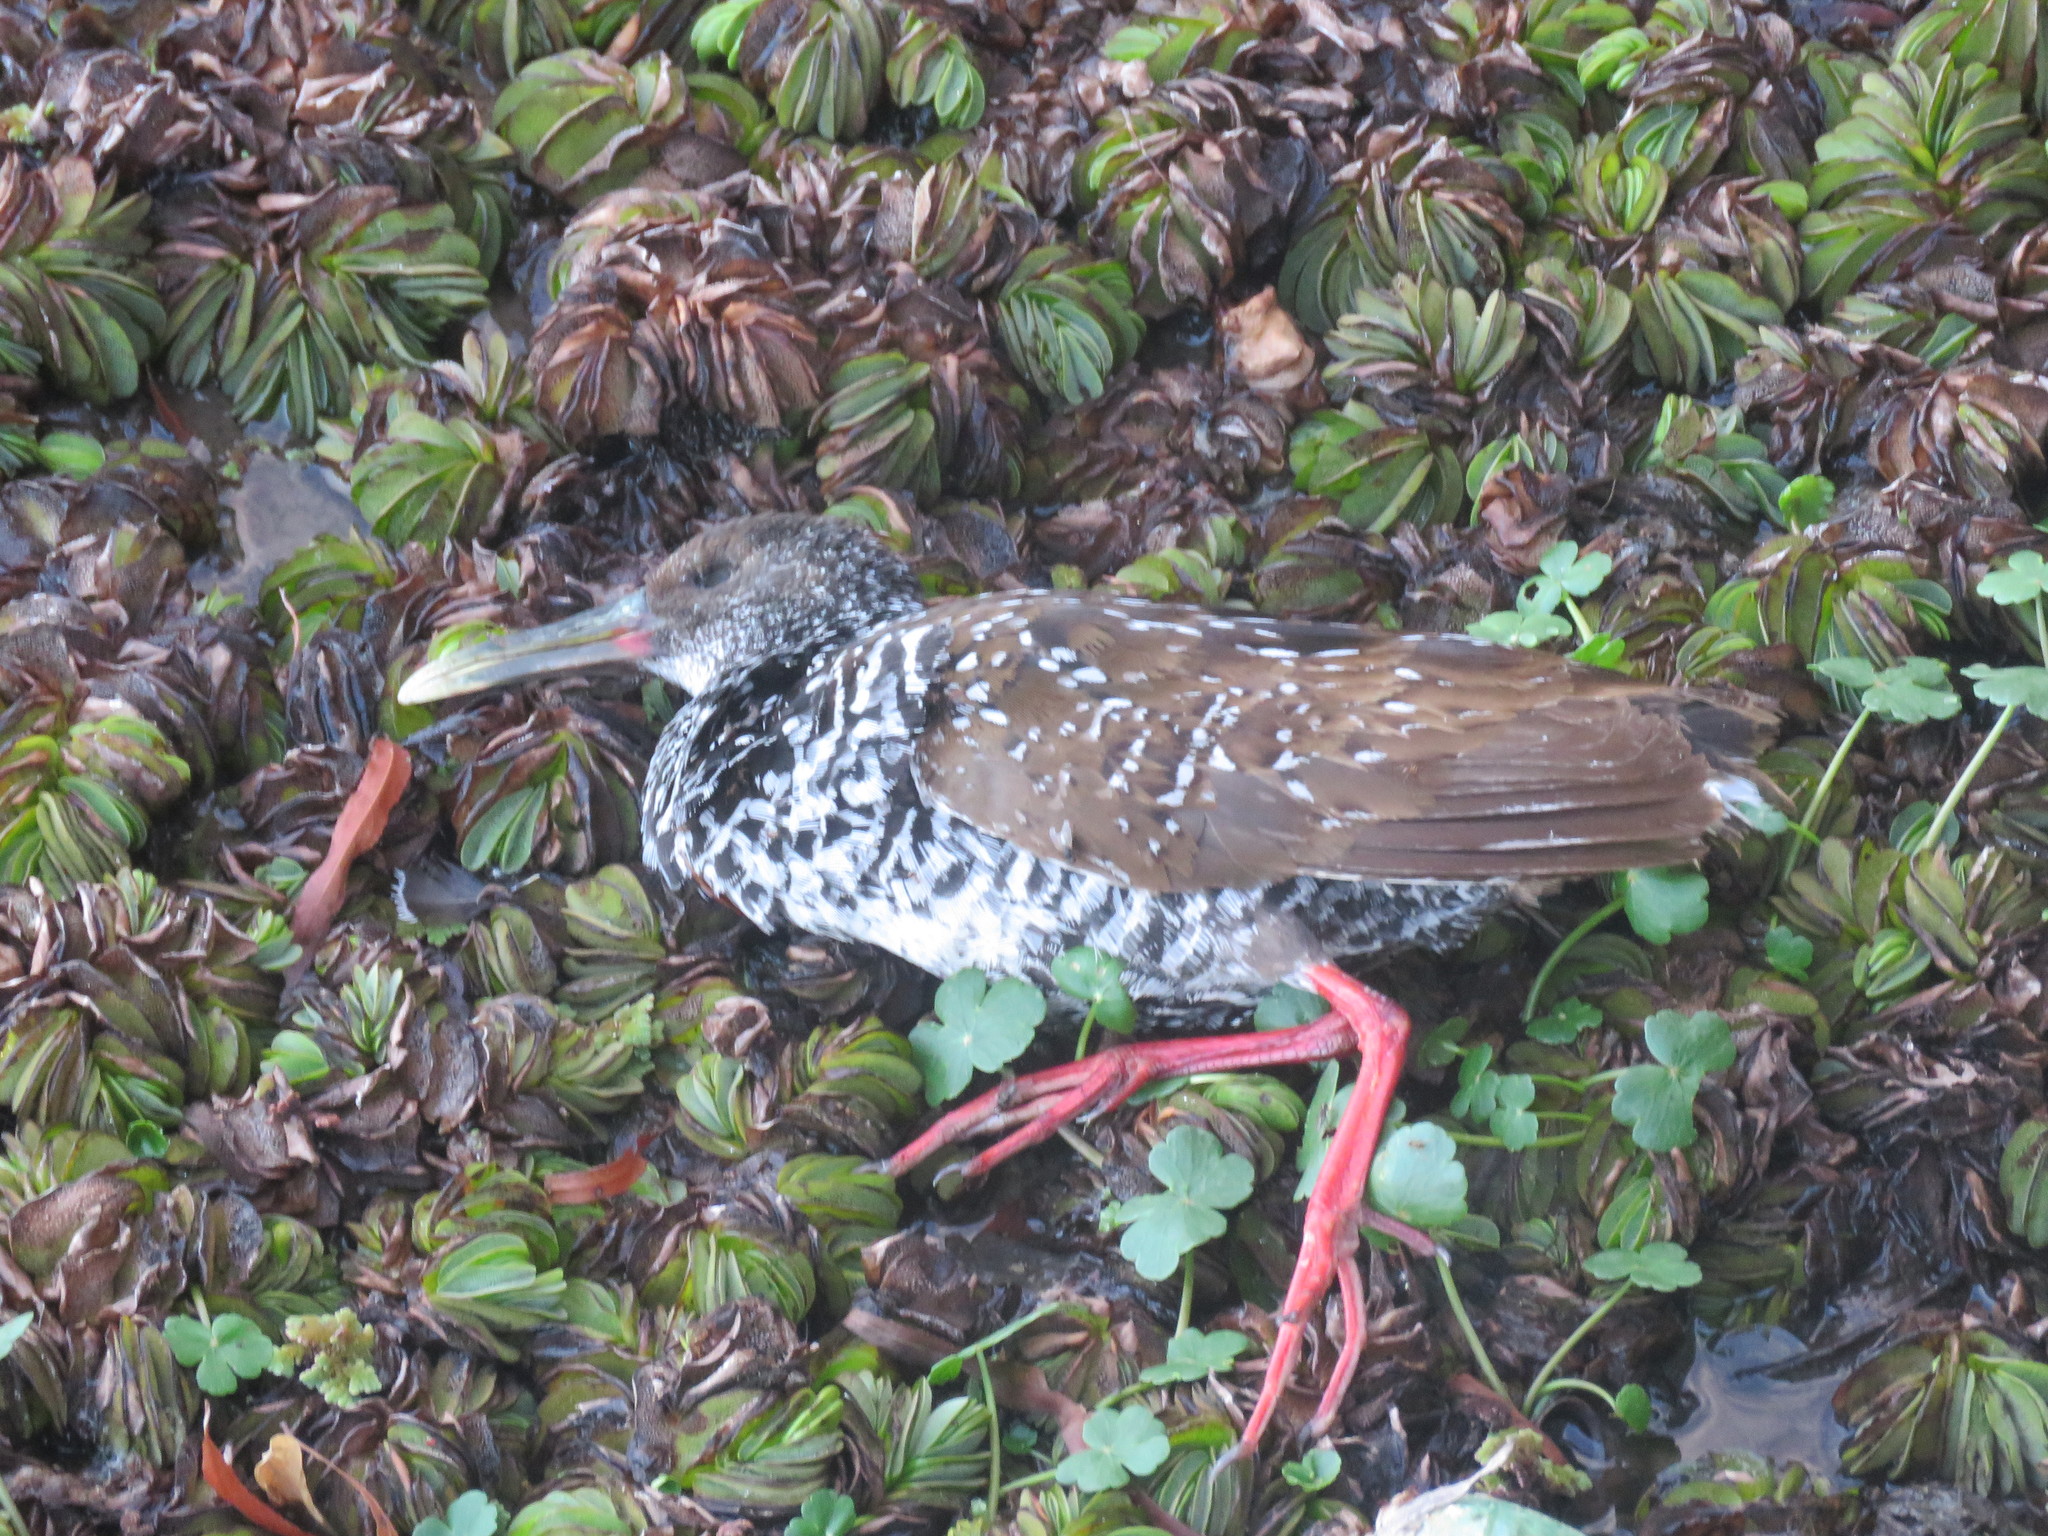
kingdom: Animalia
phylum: Chordata
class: Aves
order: Gruiformes
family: Rallidae
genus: Pardirallus
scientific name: Pardirallus maculatus
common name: Spotted rail
